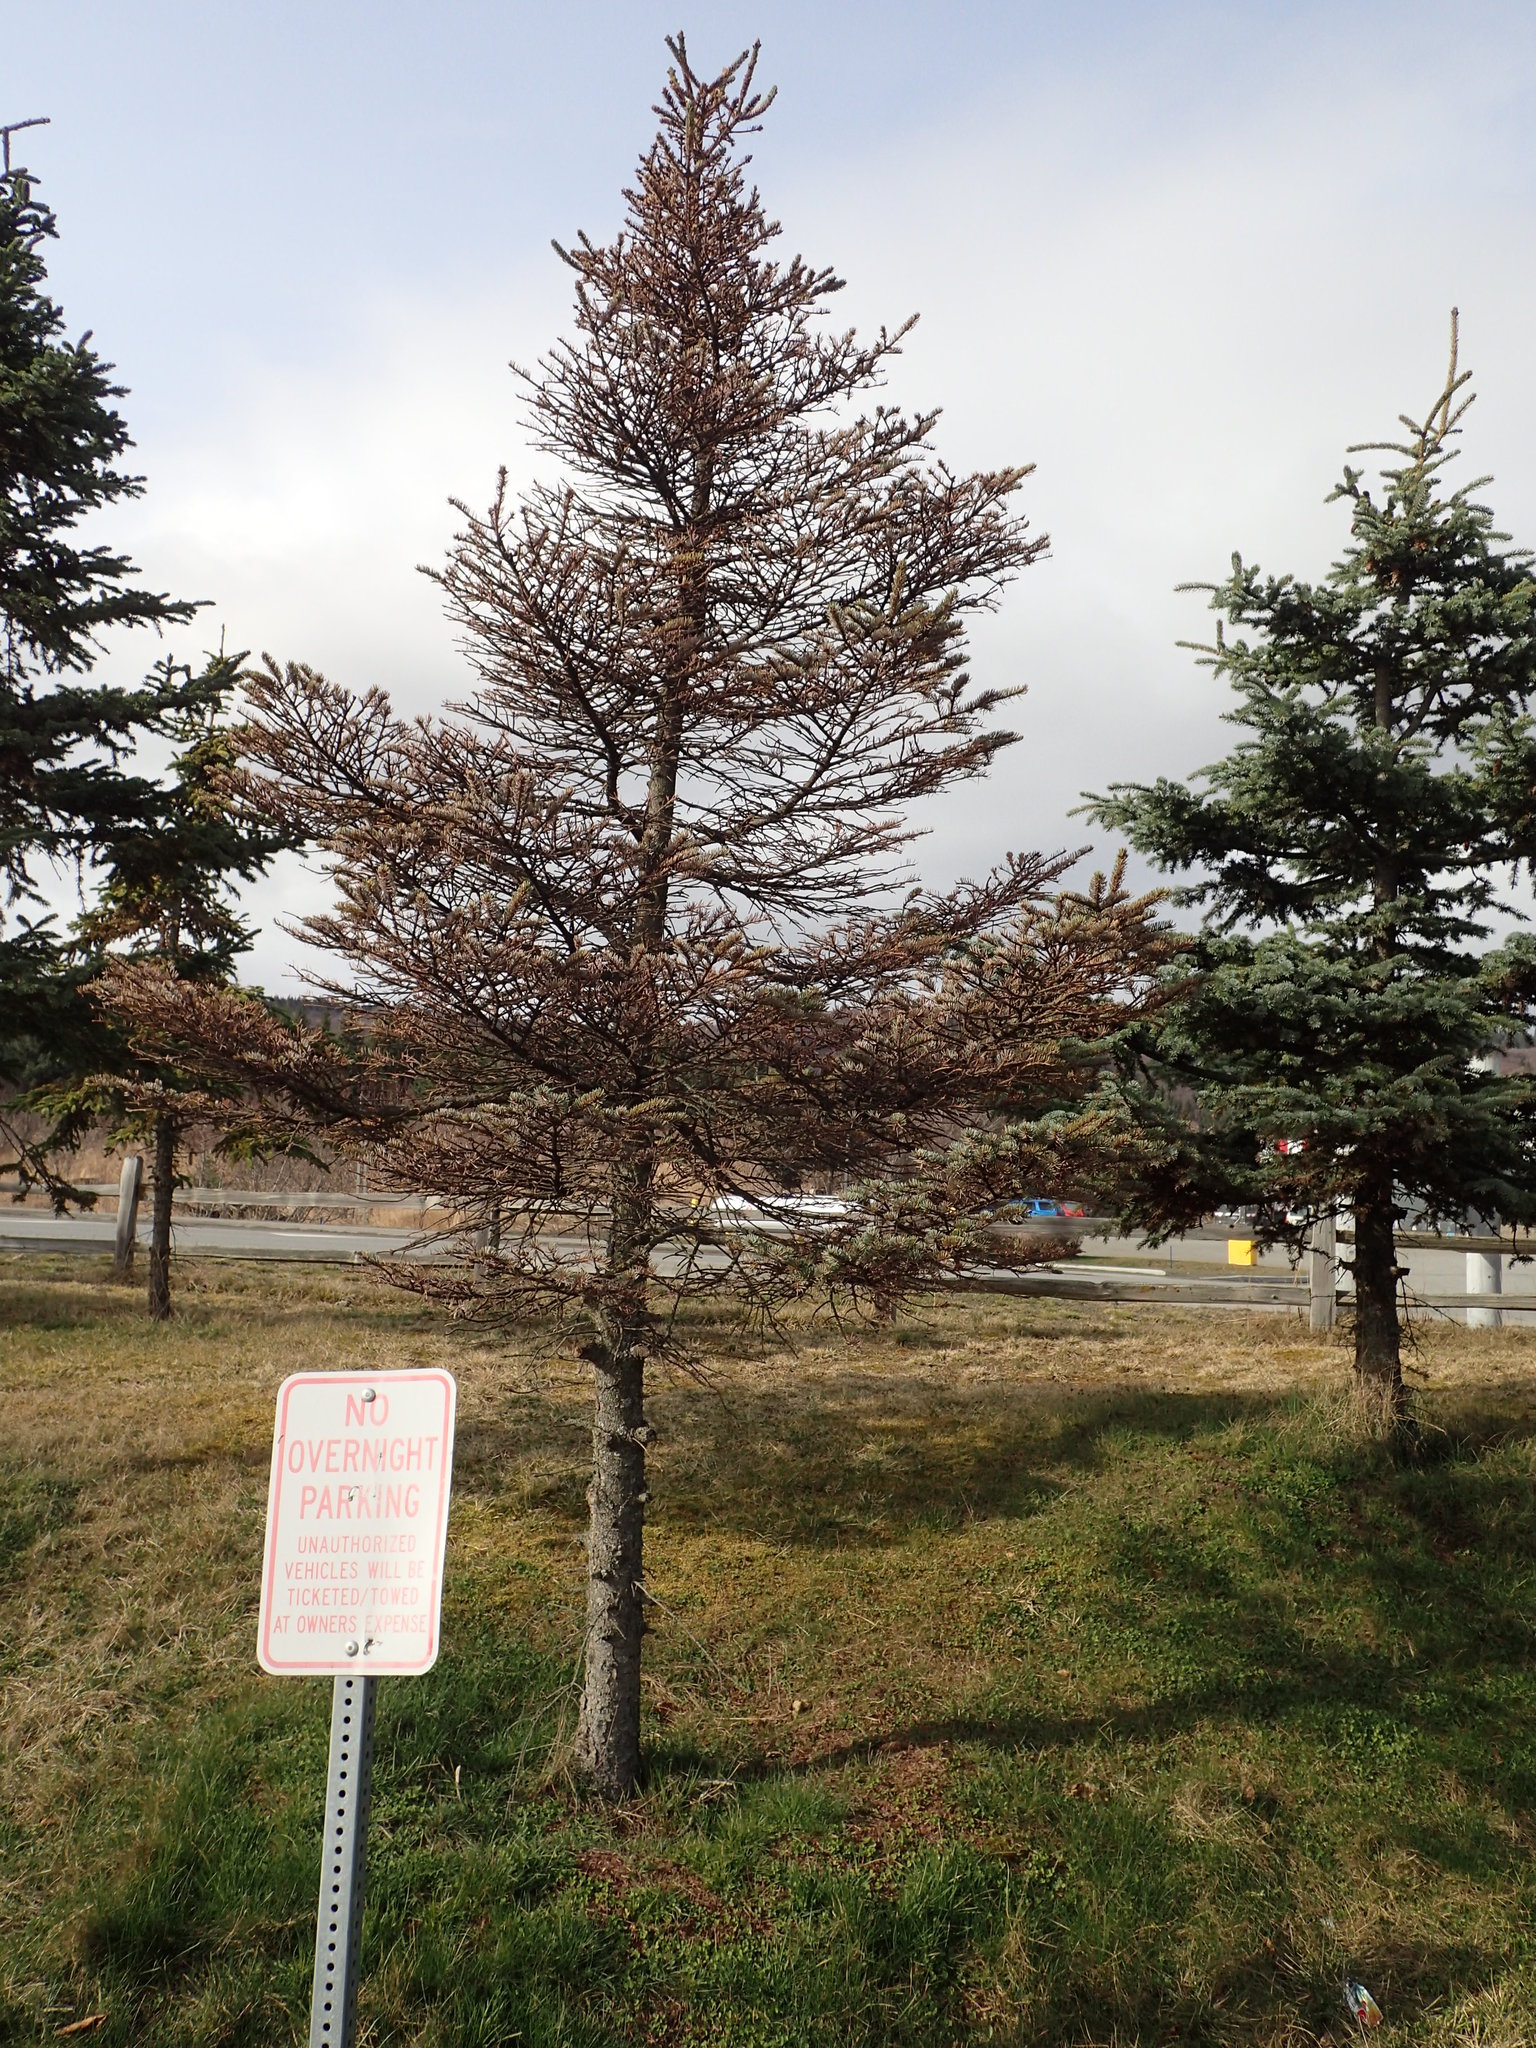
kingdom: Animalia
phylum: Arthropoda
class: Insecta
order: Hemiptera
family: Aphididae
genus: Elatobium
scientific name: Elatobium abietinum
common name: Spruce aphid
